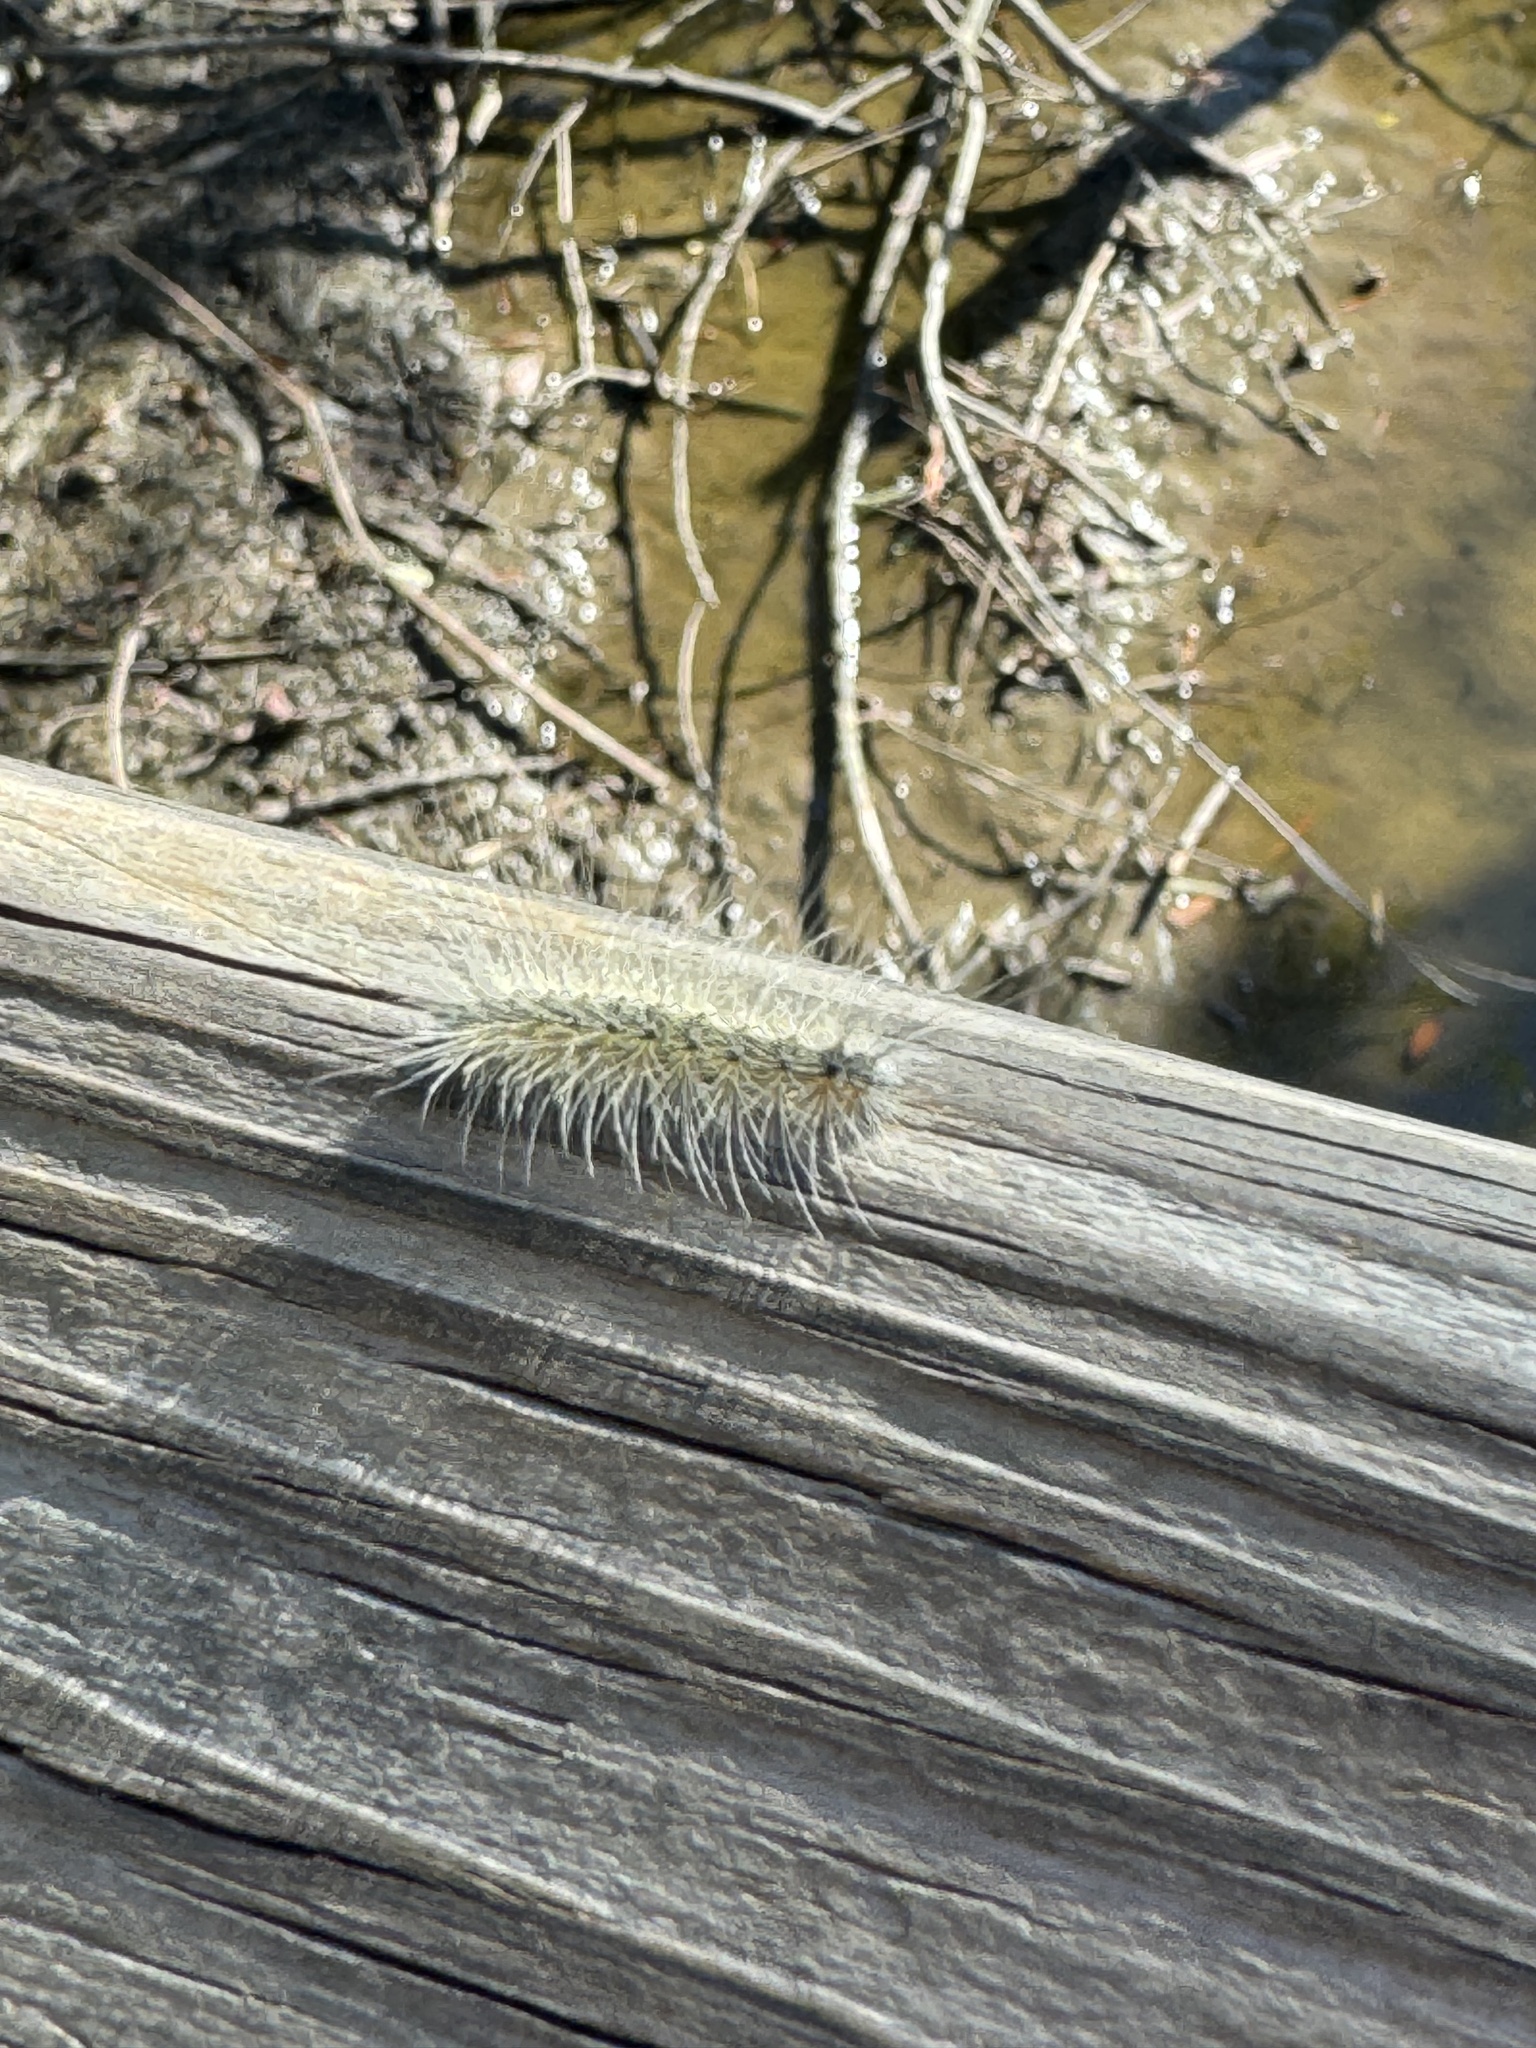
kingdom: Animalia
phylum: Arthropoda
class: Insecta
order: Lepidoptera
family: Erebidae
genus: Hyphantria
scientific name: Hyphantria cunea
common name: American white moth
